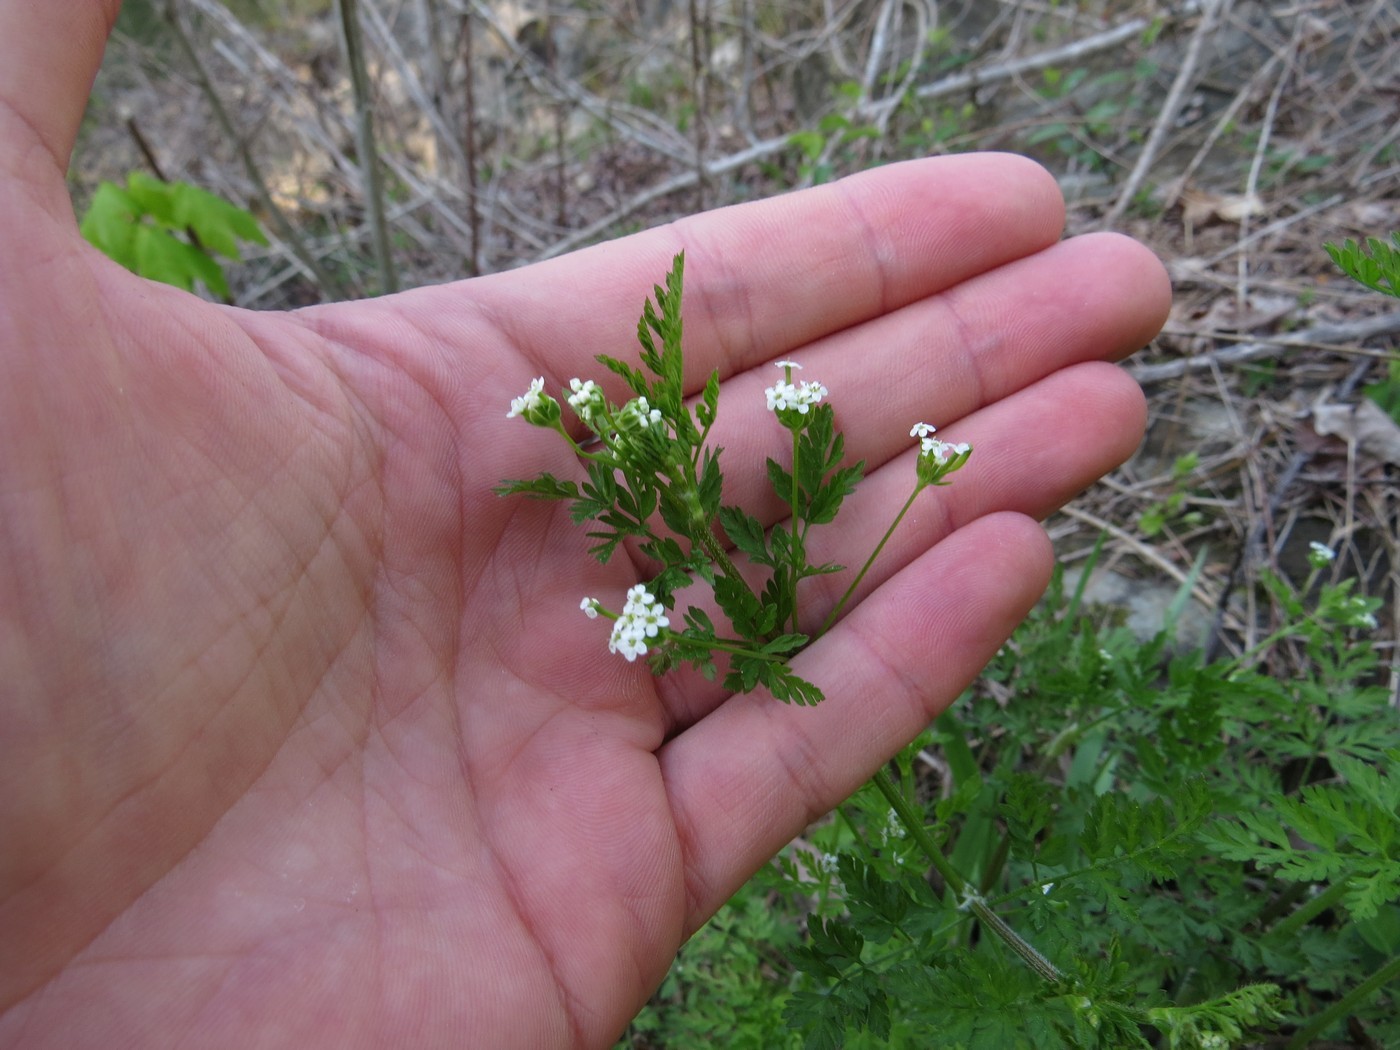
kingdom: Plantae
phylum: Tracheophyta
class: Magnoliopsida
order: Apiales
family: Apiaceae
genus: Chaerophyllum
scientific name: Chaerophyllum tainturieri
